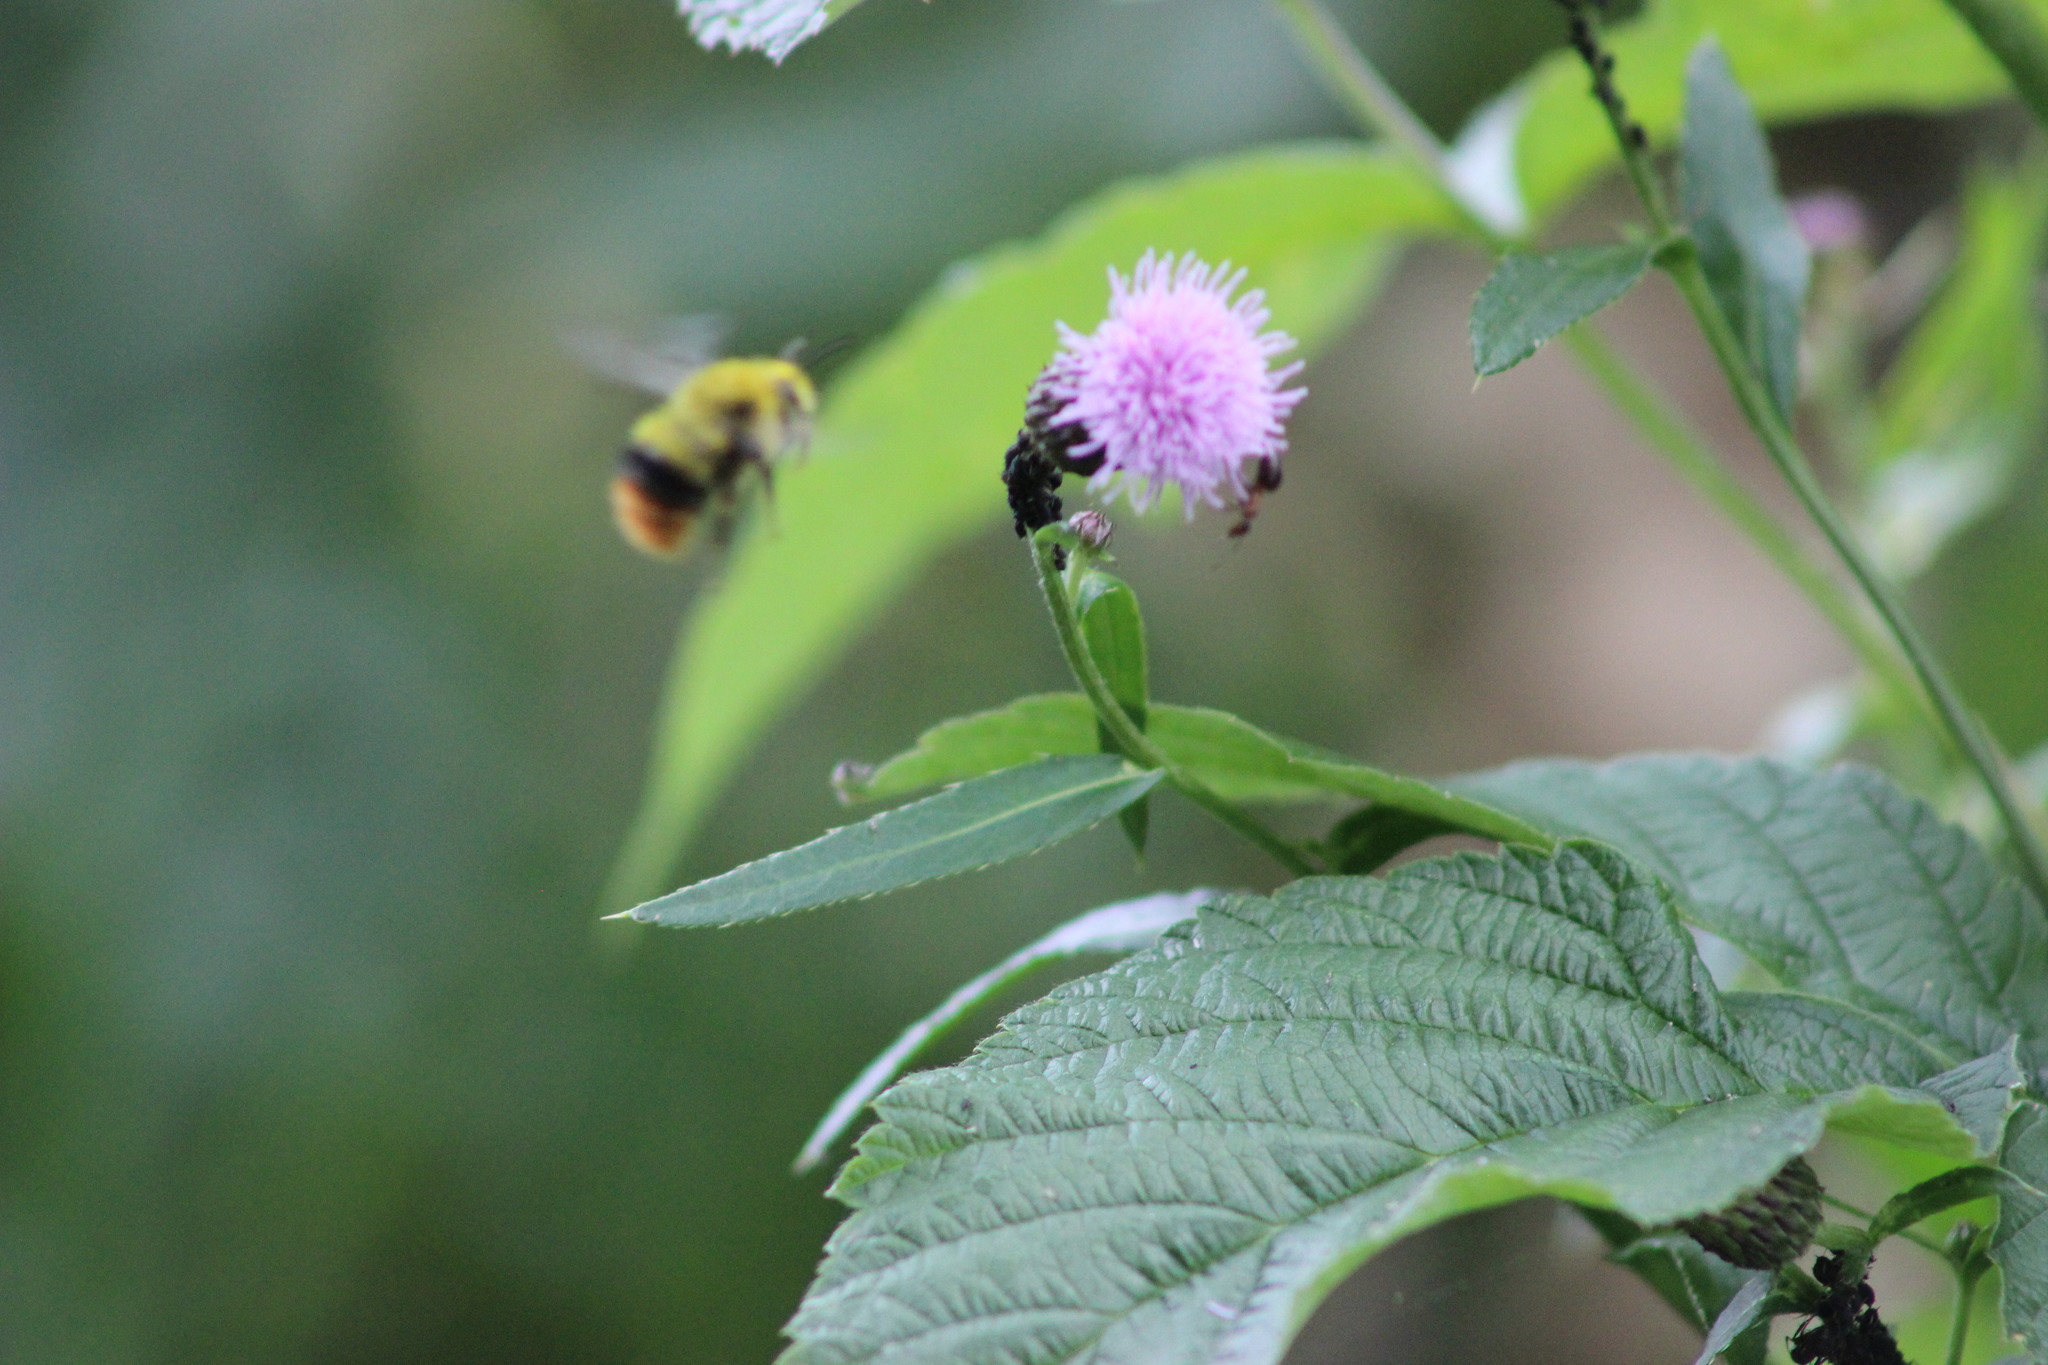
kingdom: Animalia
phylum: Arthropoda
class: Insecta
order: Hymenoptera
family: Apidae
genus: Bombus
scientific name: Bombus pratorum
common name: Early humble-bee
